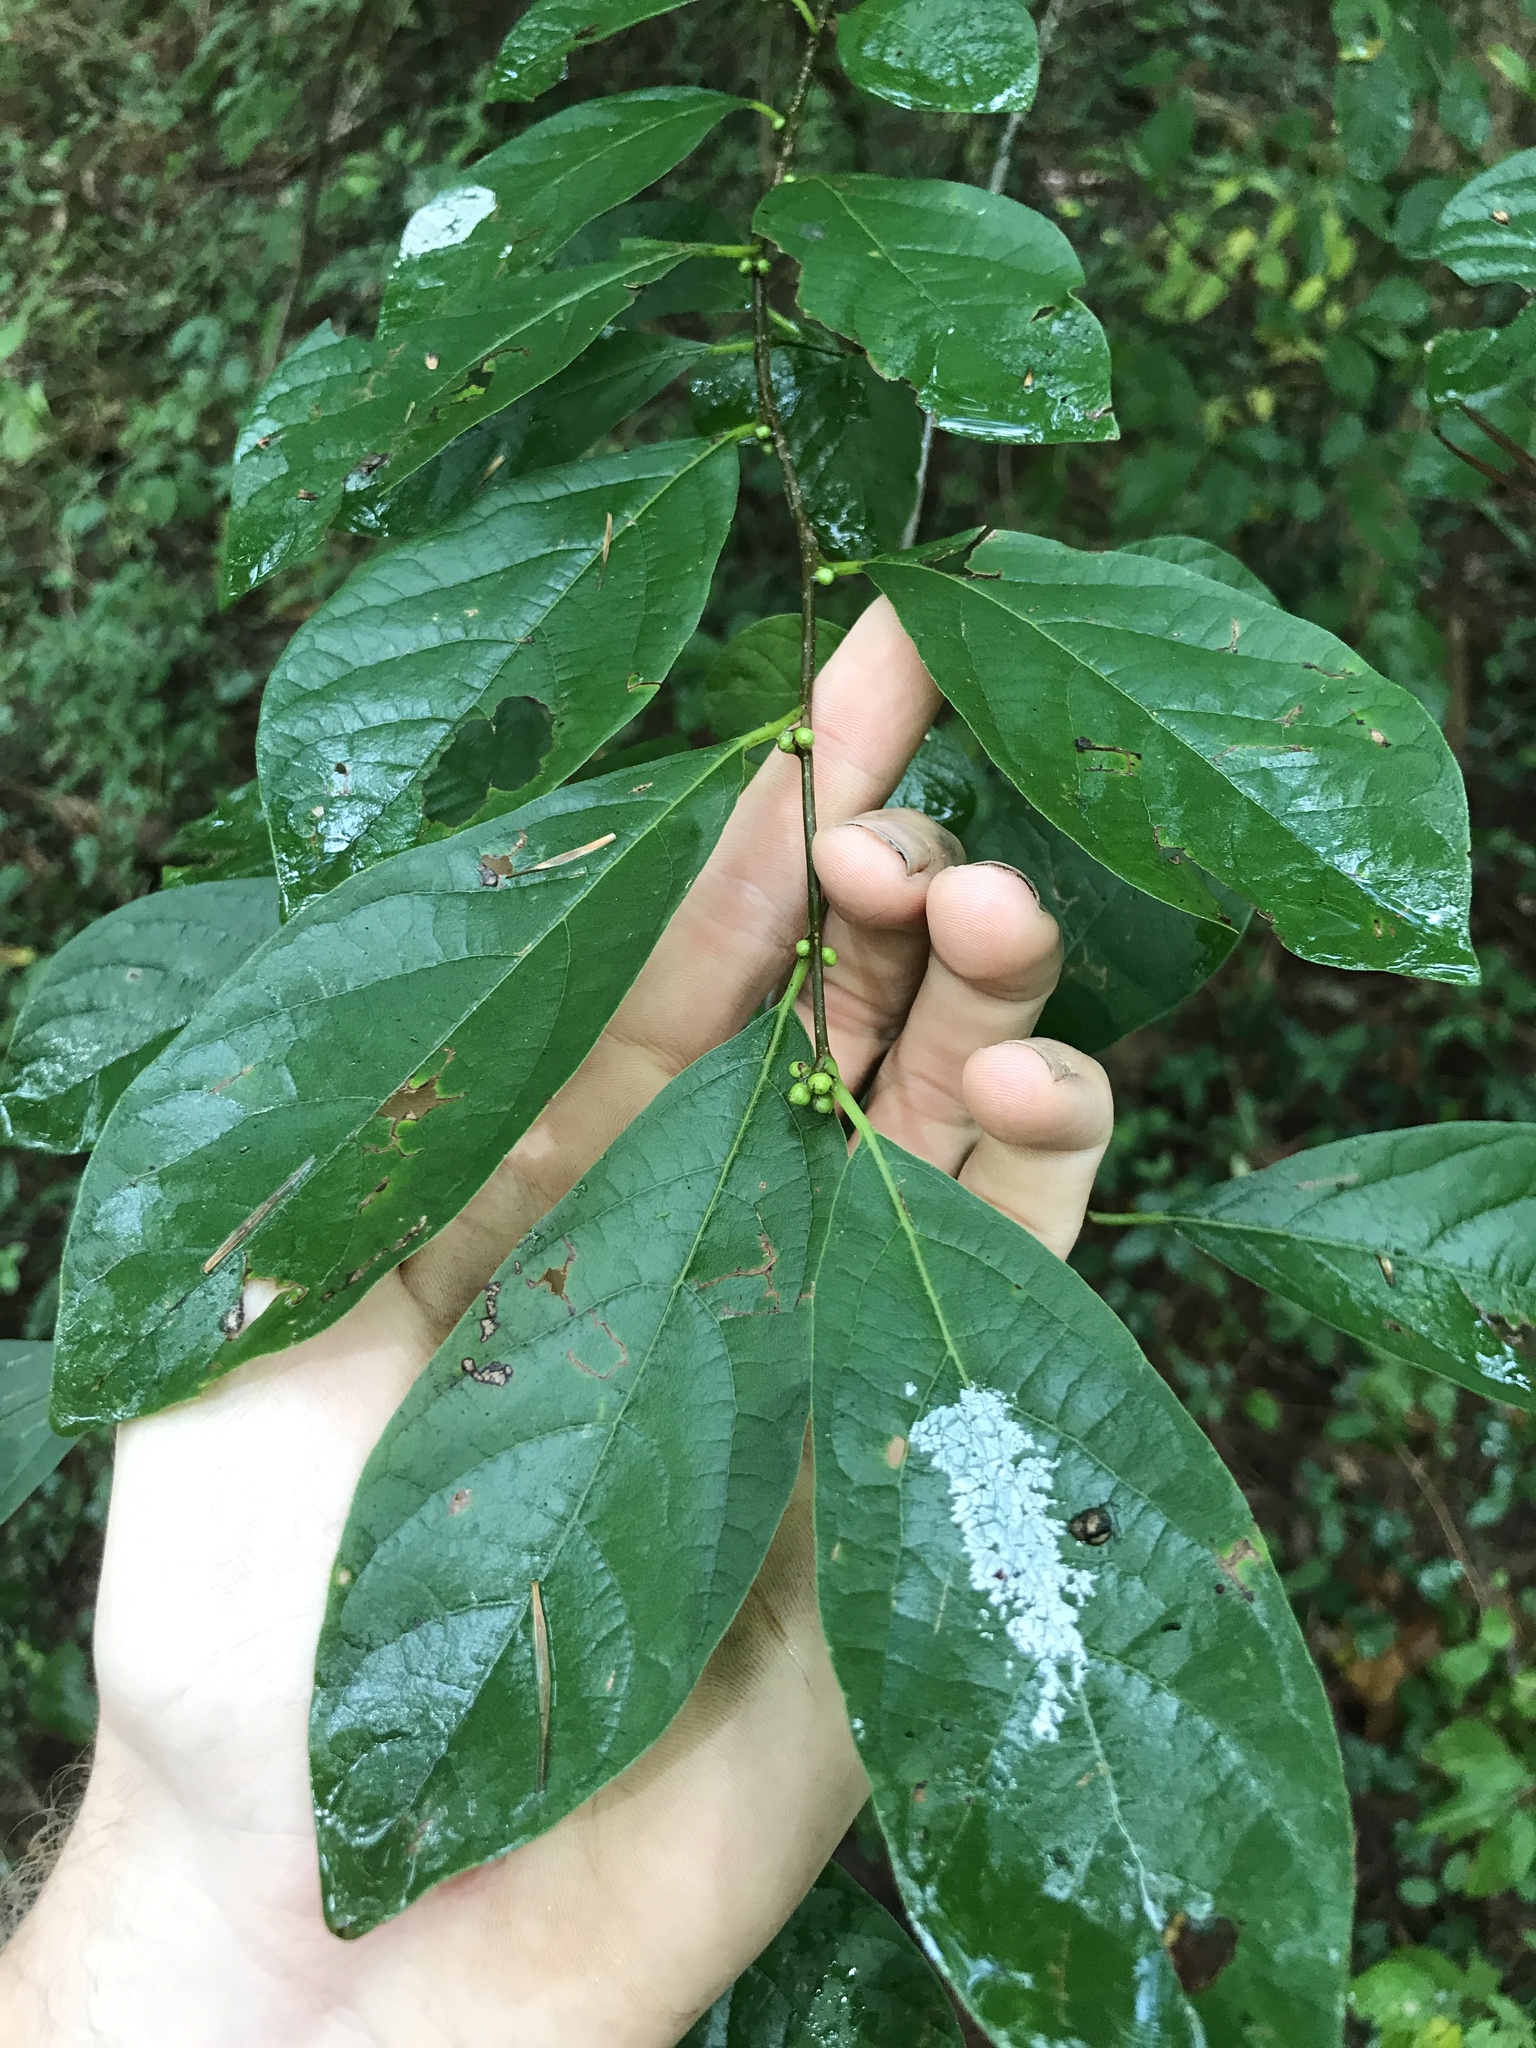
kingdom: Plantae
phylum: Tracheophyta
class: Magnoliopsida
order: Laurales
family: Lauraceae
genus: Lindera
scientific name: Lindera benzoin
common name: Spicebush
